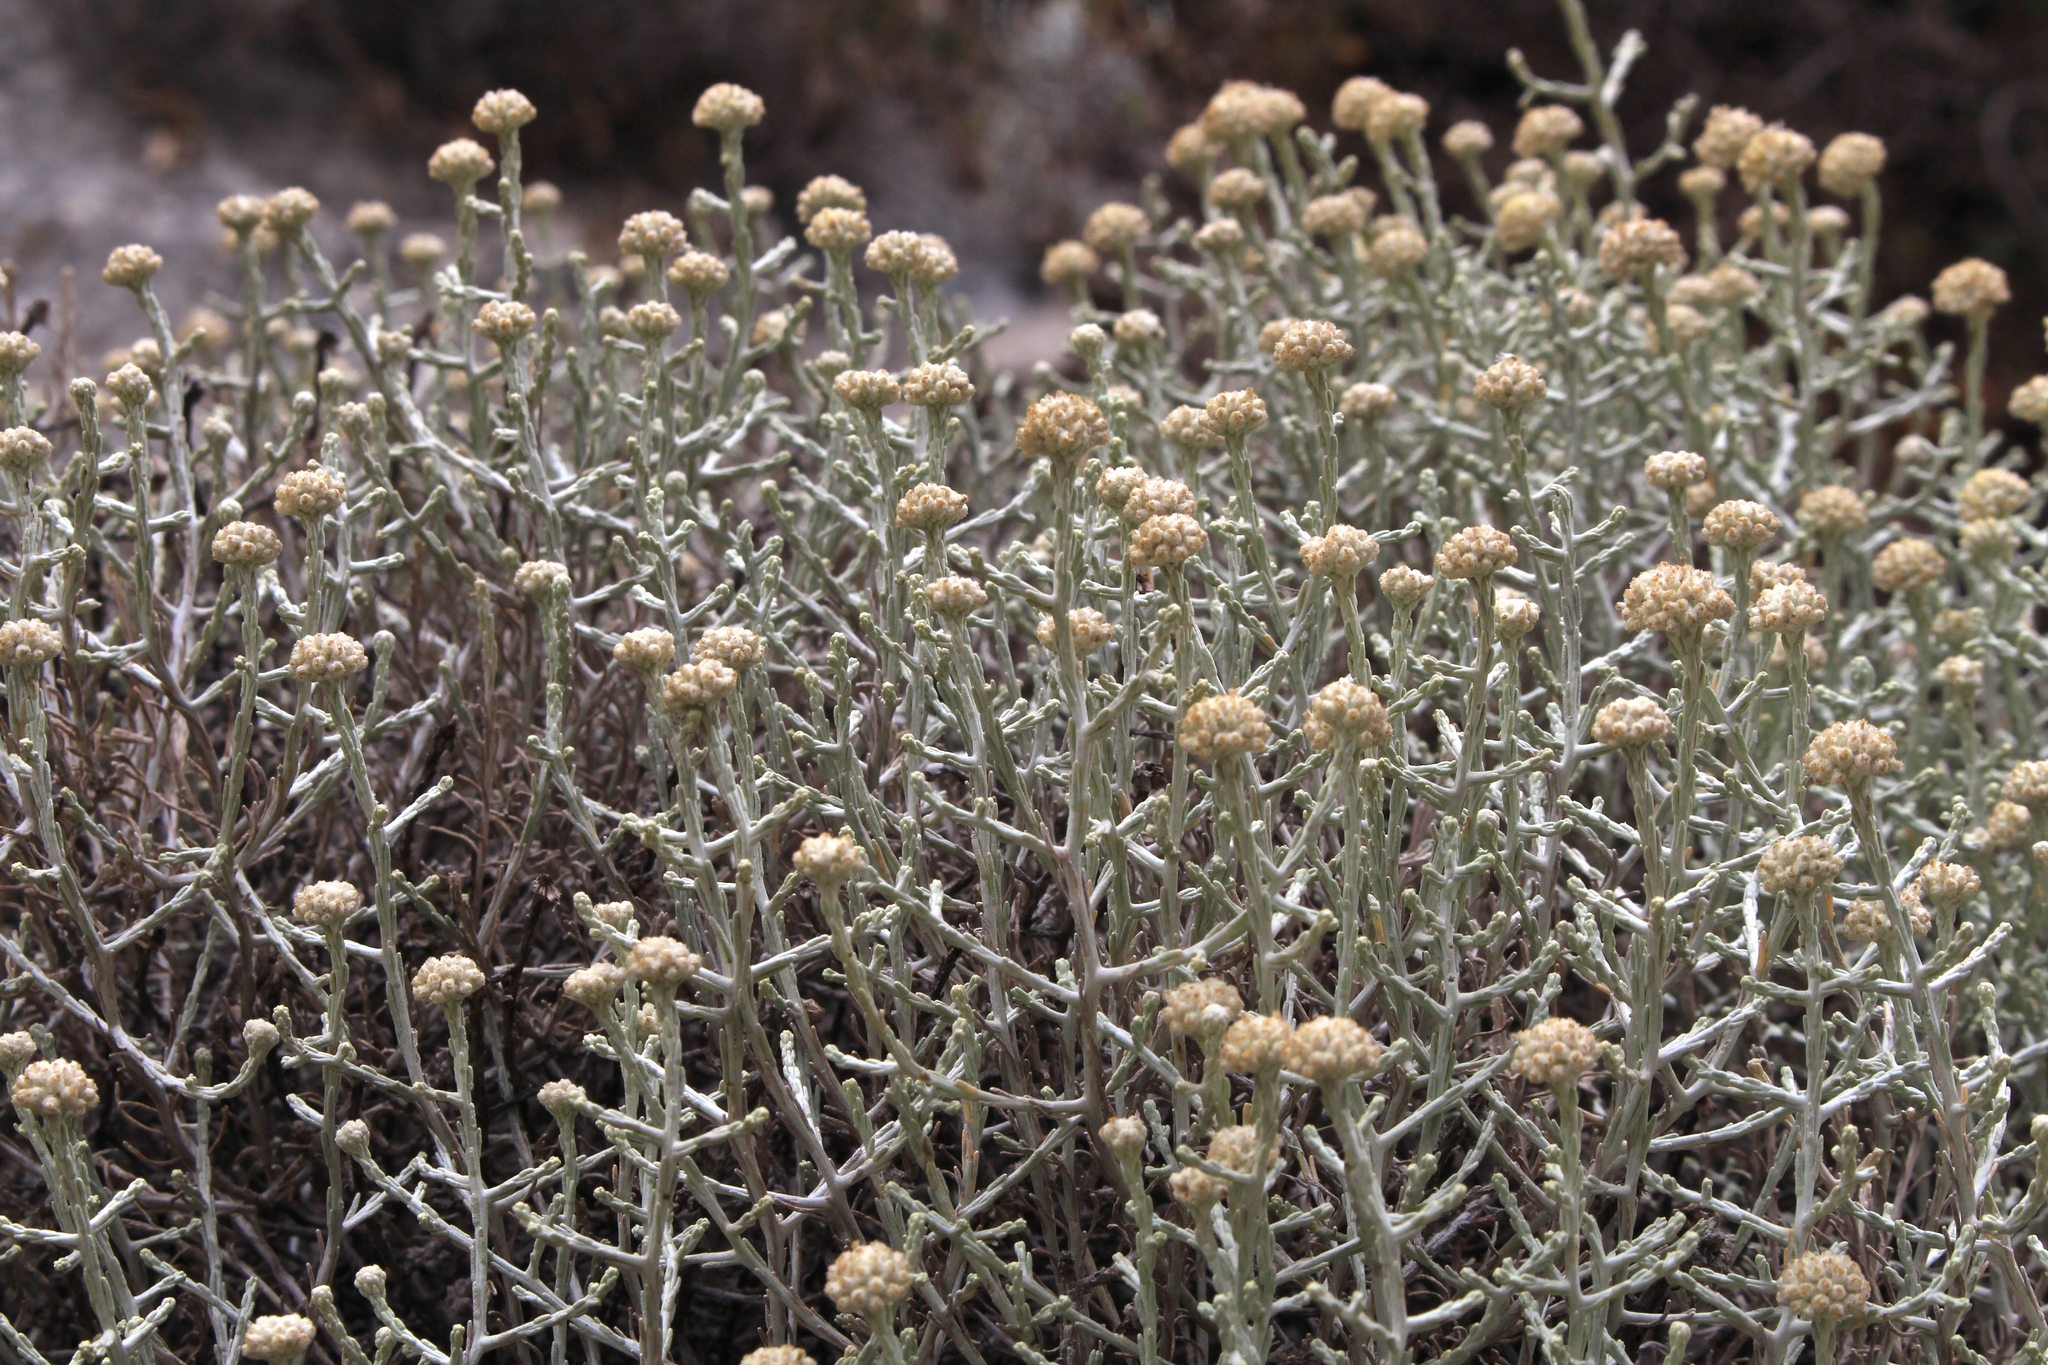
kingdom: Plantae
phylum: Tracheophyta
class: Magnoliopsida
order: Asterales
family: Asteraceae
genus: Calocephalus
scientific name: Calocephalus brownii
